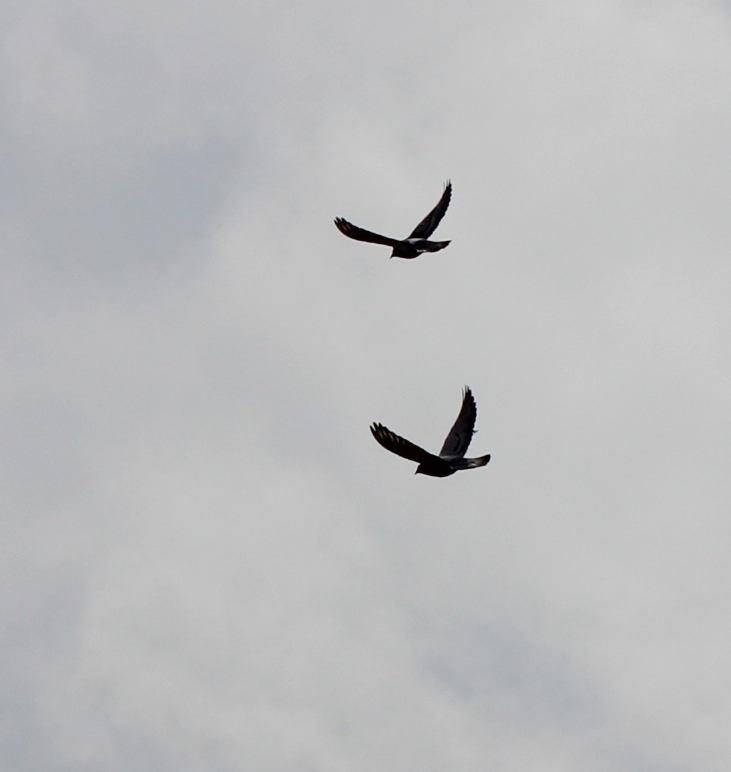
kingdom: Animalia
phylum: Chordata
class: Aves
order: Columbiformes
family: Columbidae
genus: Columba
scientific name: Columba livia
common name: Rock pigeon
